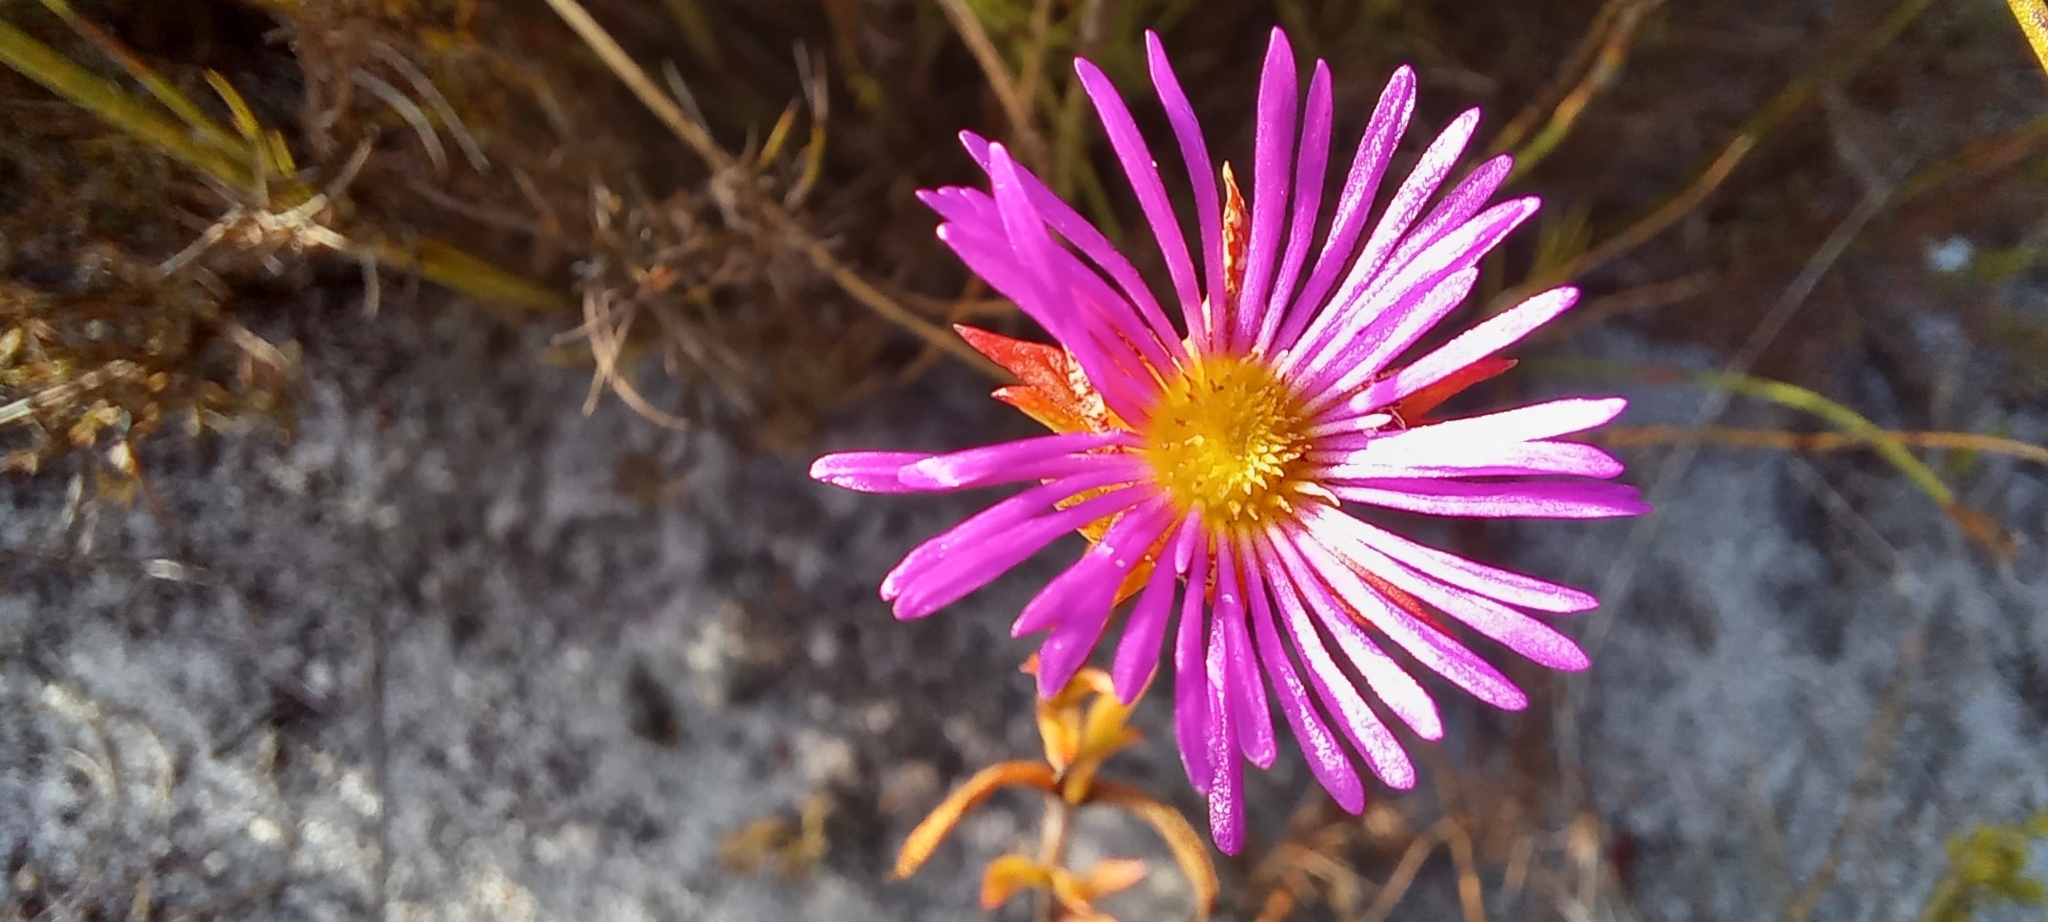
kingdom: Plantae
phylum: Tracheophyta
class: Magnoliopsida
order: Caryophyllales
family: Aizoaceae
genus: Erepsia
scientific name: Erepsia anceps
